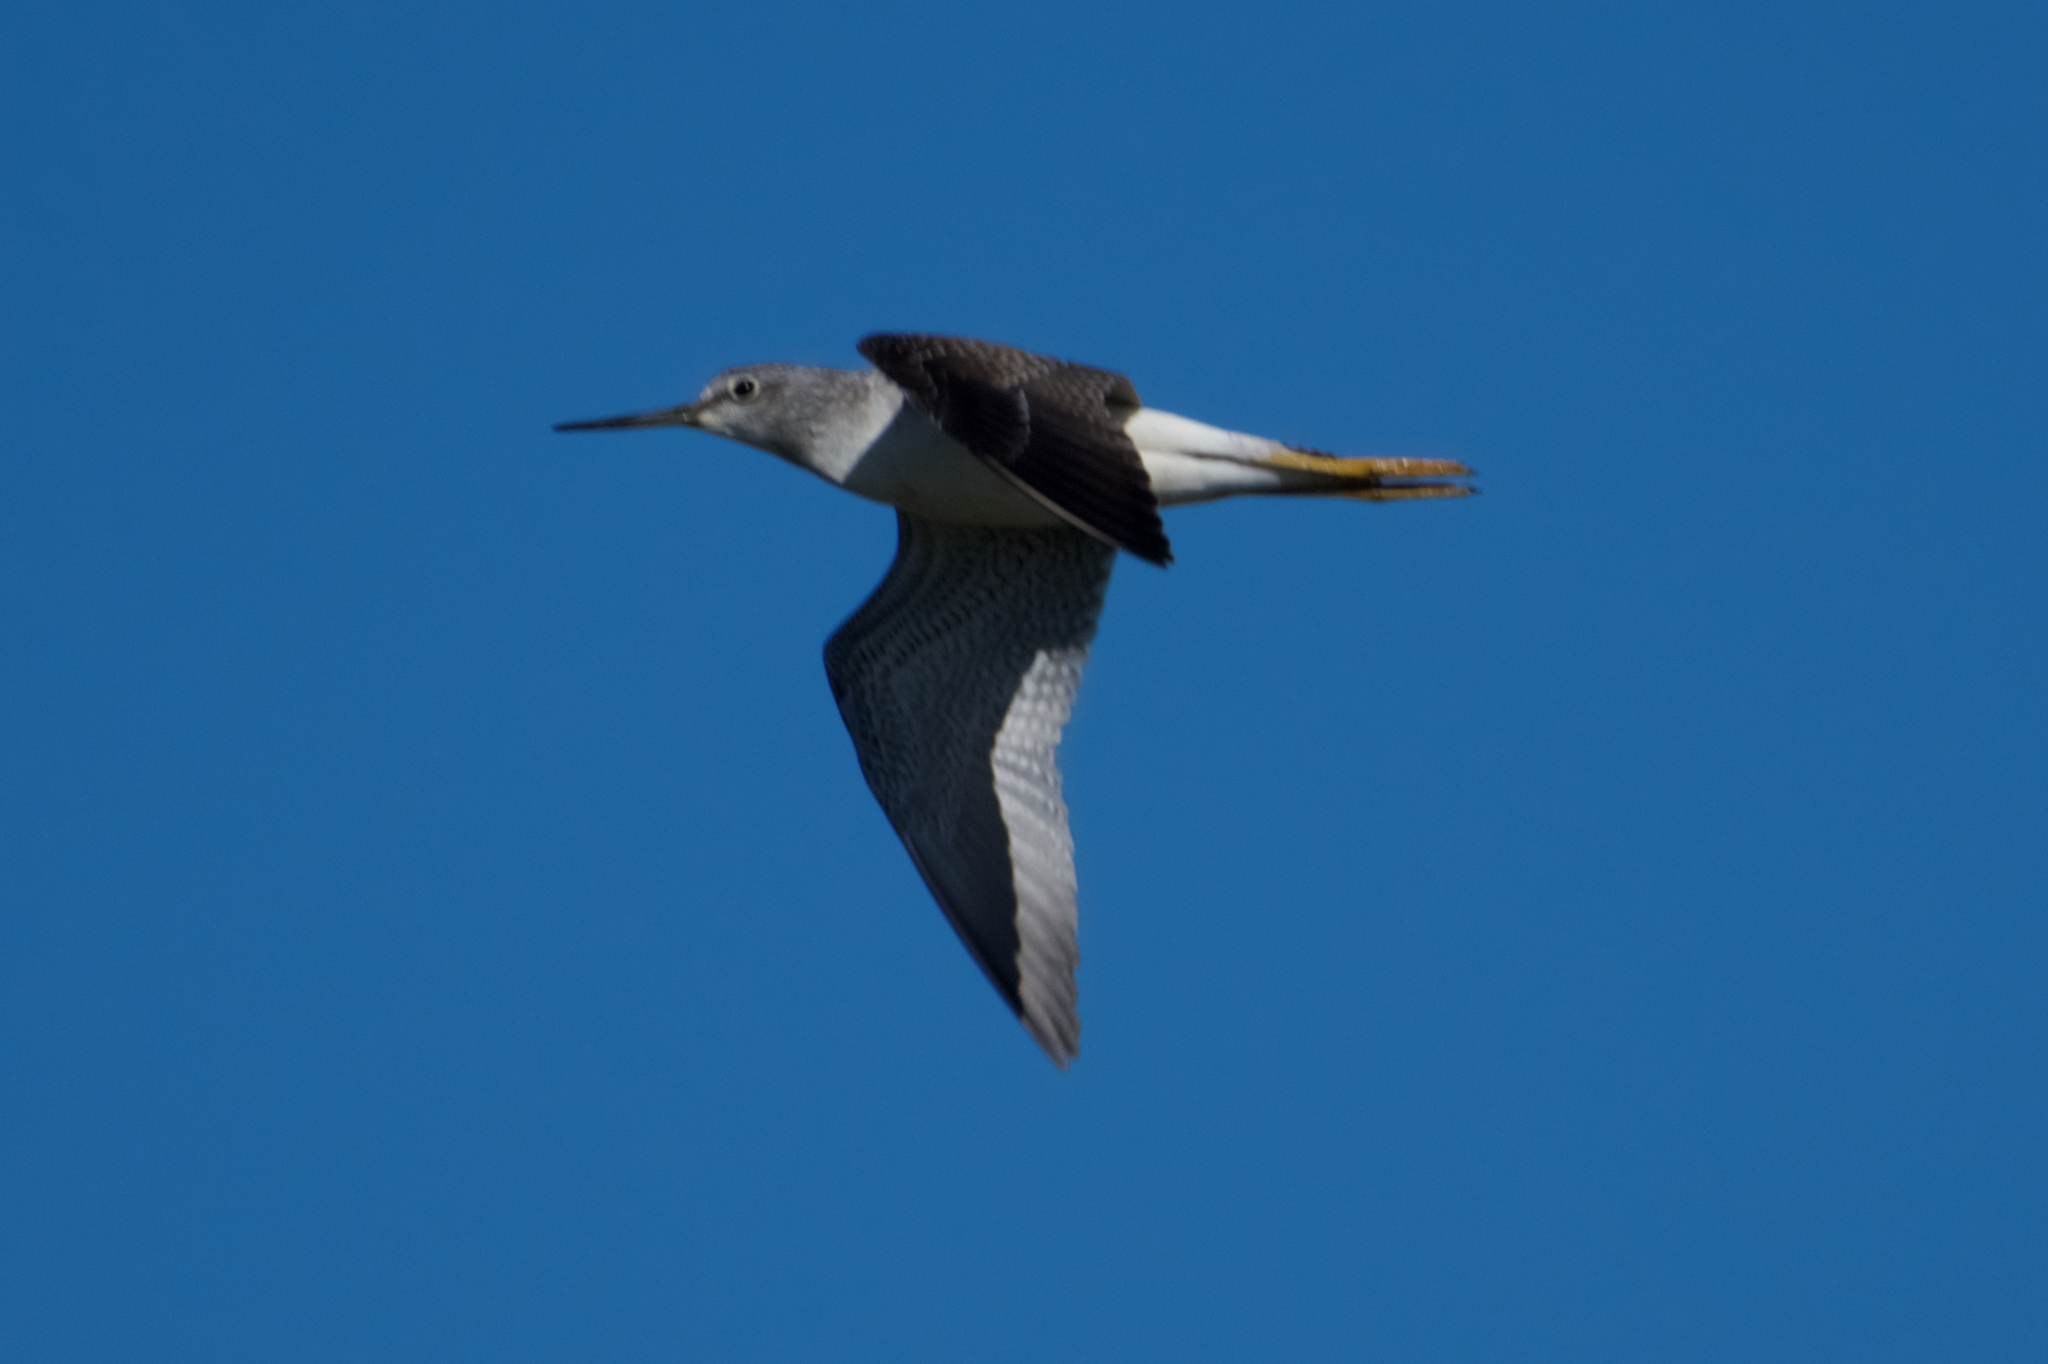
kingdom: Animalia
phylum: Chordata
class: Aves
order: Charadriiformes
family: Scolopacidae
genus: Tringa
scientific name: Tringa melanoleuca
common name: Greater yellowlegs
